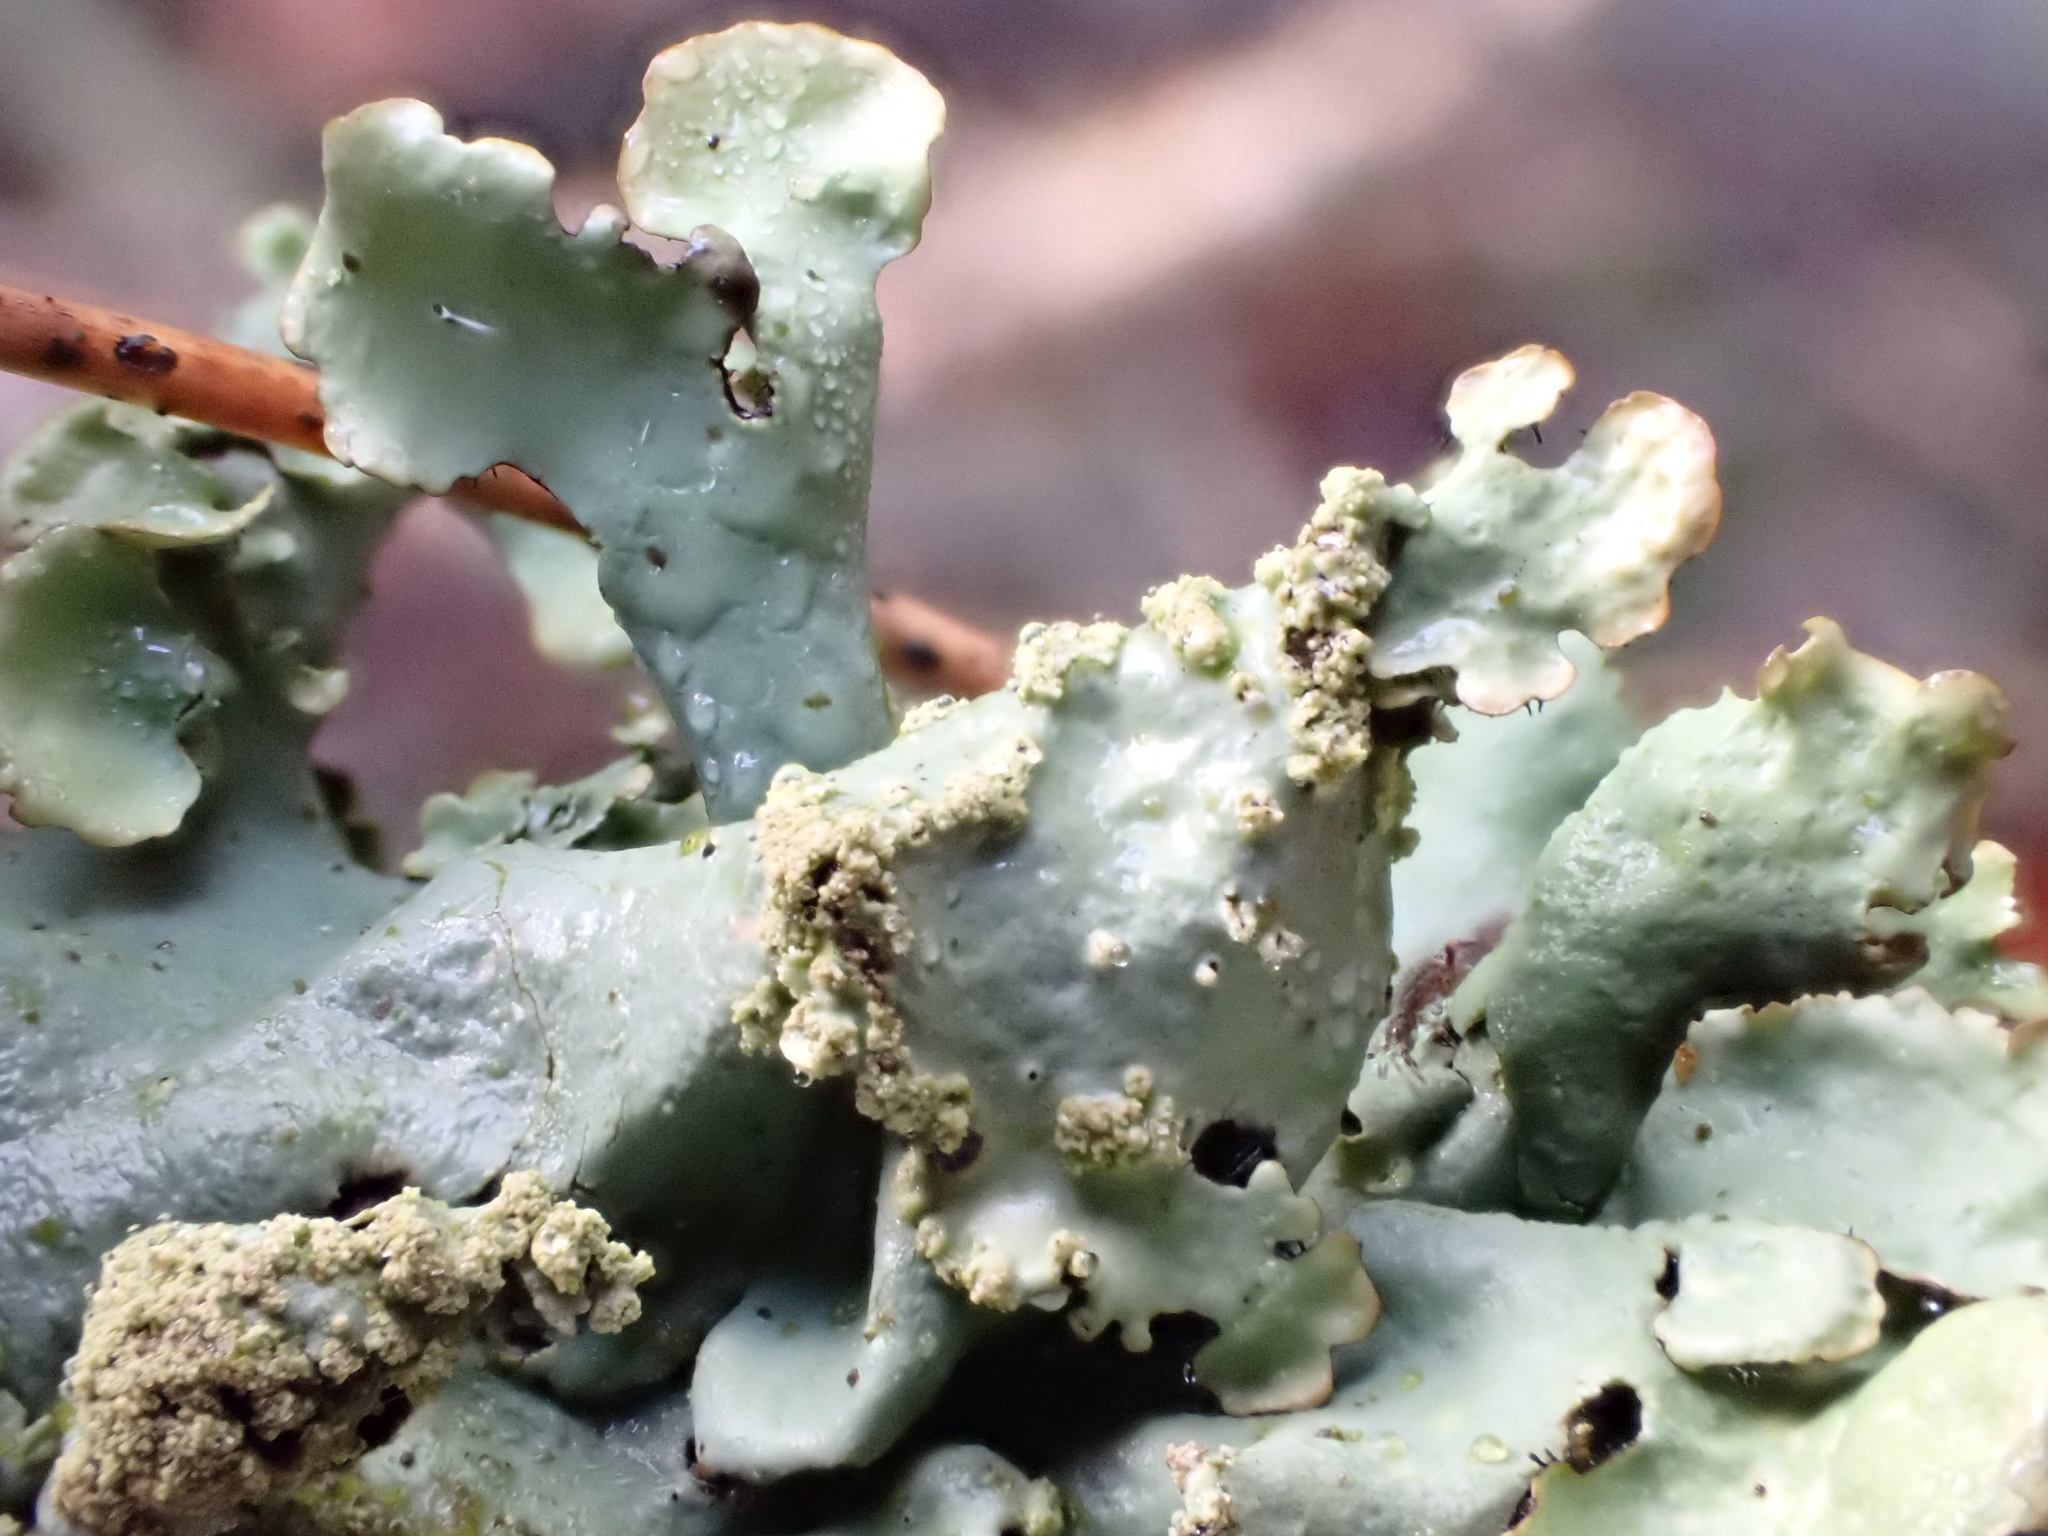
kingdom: Fungi
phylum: Ascomycota
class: Lecanoromycetes
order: Lecanorales
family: Parmeliaceae
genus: Hypotrachyna
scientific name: Hypotrachyna afrorevoluta
